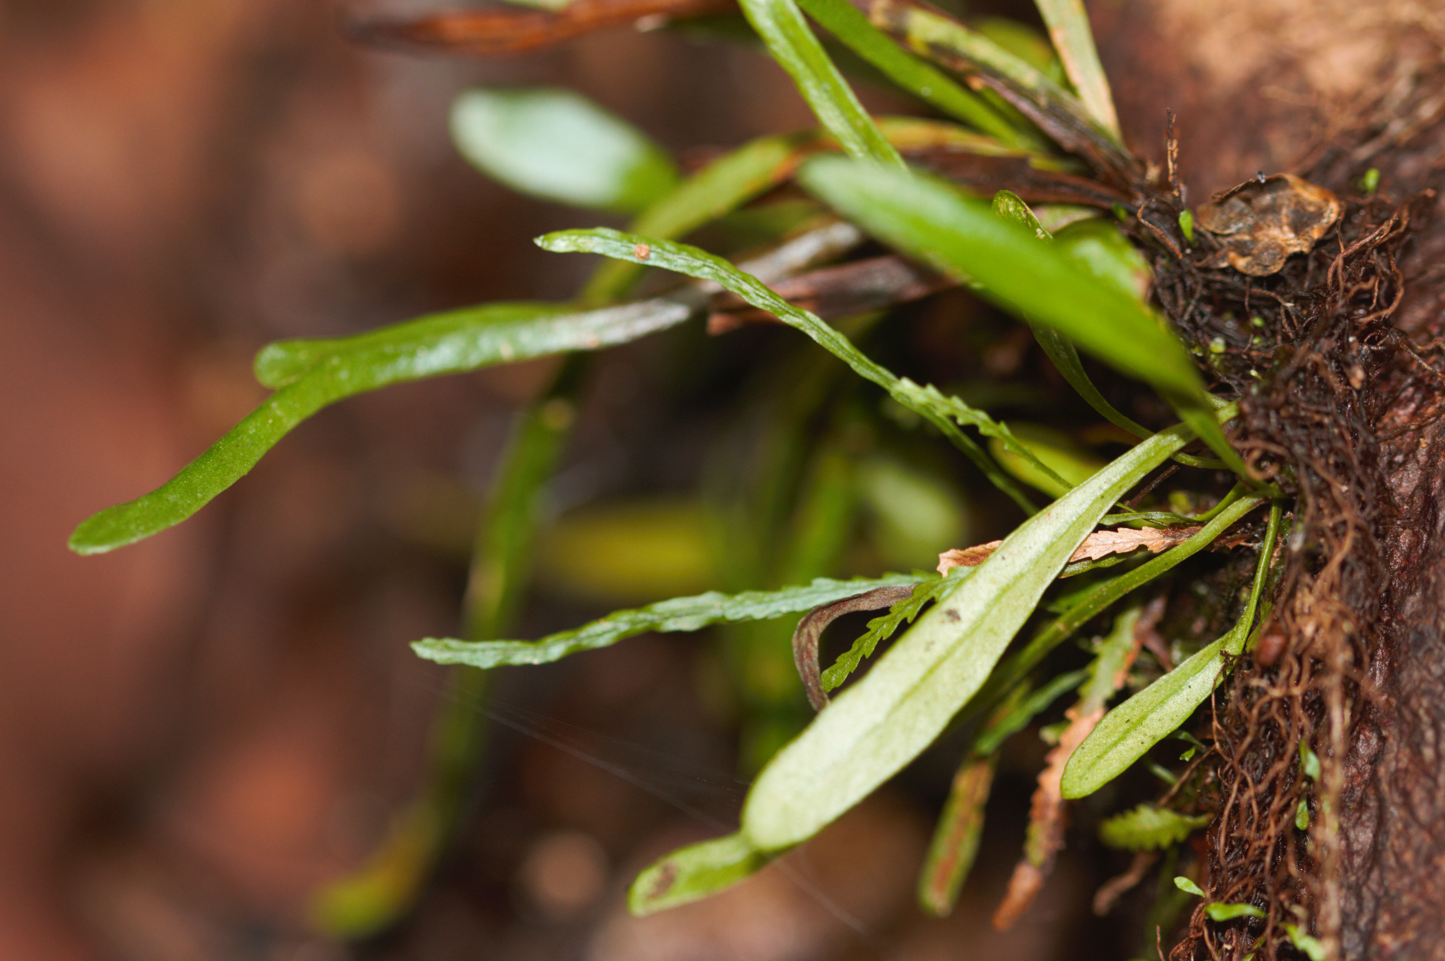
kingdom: Plantae
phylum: Tracheophyta
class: Polypodiopsida
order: Polypodiales
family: Polypodiaceae
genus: Cochlidium
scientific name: Cochlidium linearifolium
